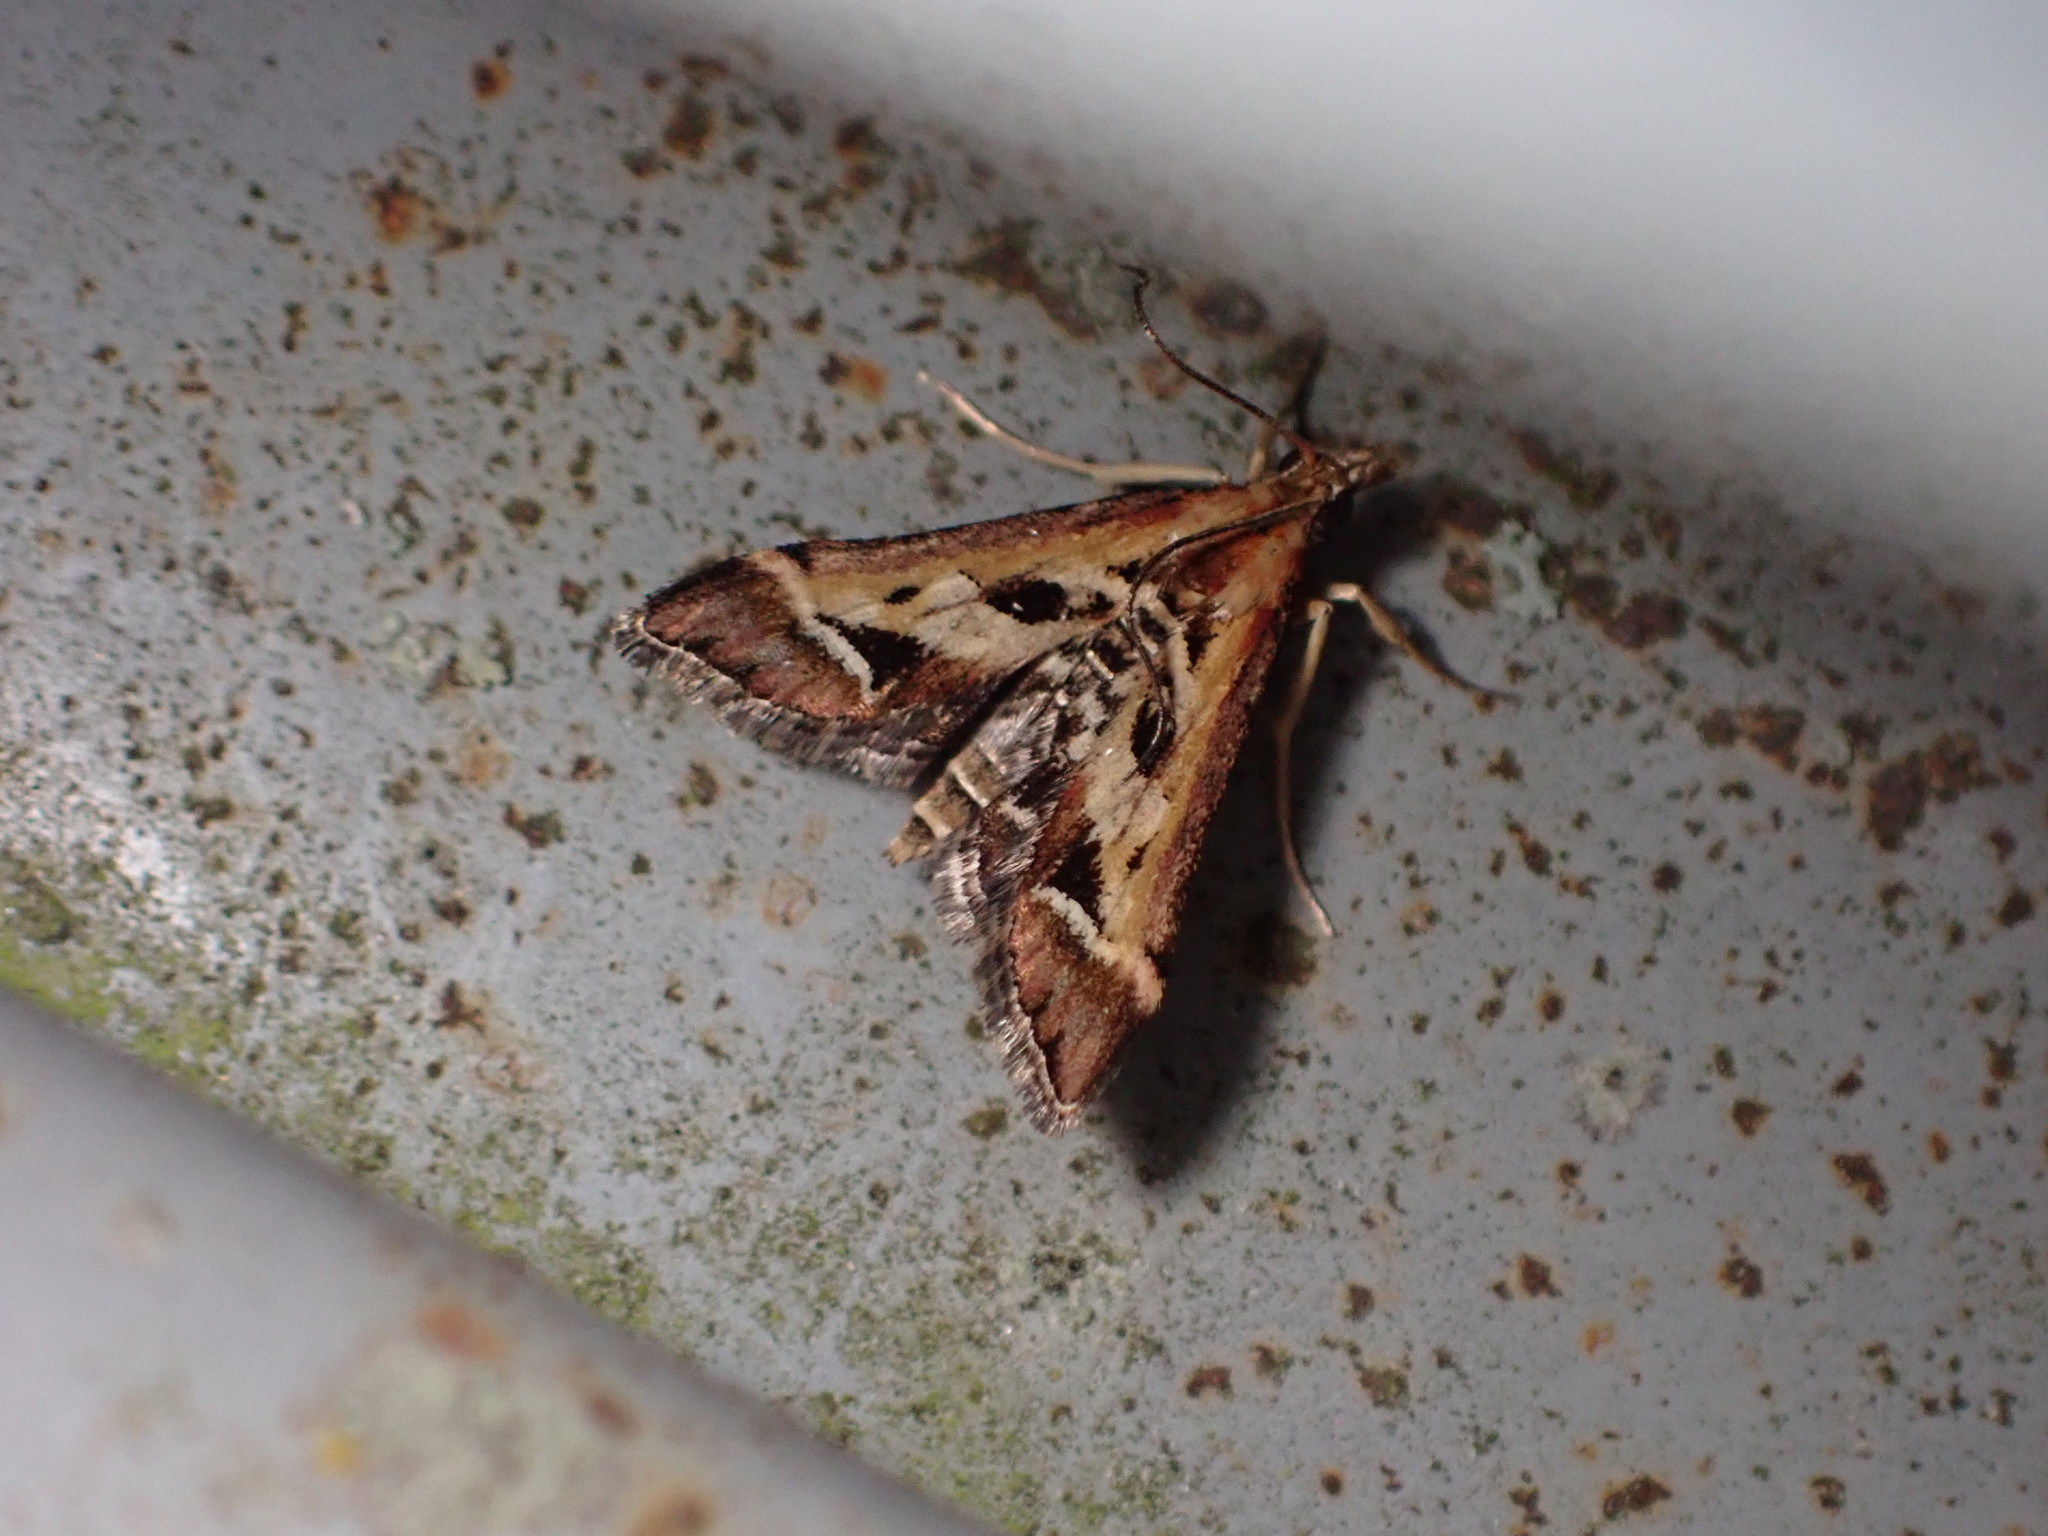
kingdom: Animalia
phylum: Arthropoda
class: Insecta
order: Lepidoptera
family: Crambidae
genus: Diasemia
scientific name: Diasemia grammalis
